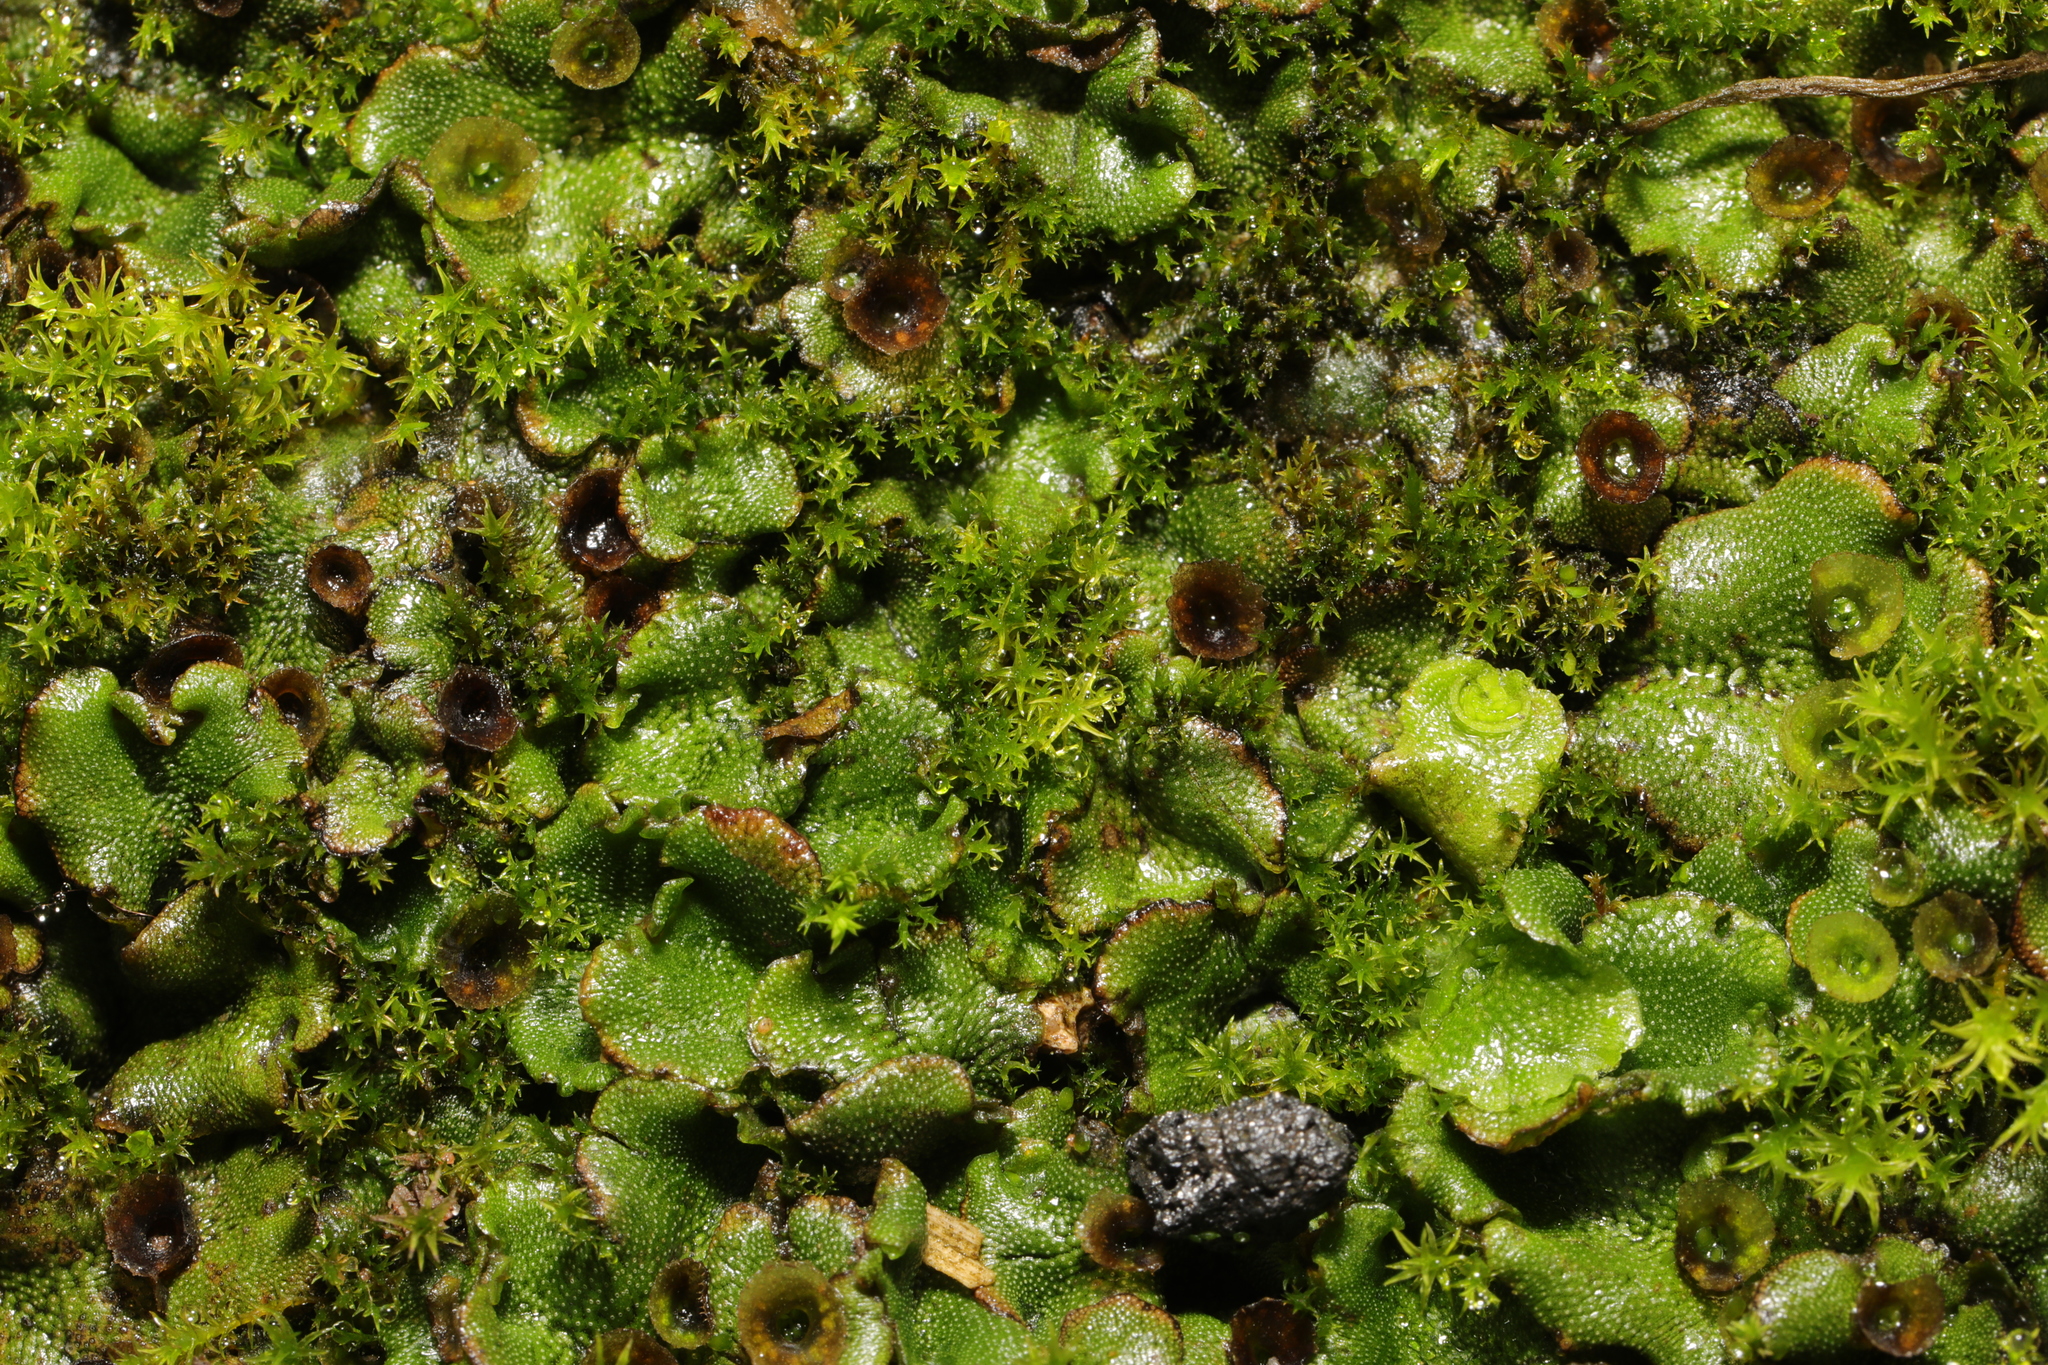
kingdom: Plantae
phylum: Marchantiophyta
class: Marchantiopsida
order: Marchantiales
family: Marchantiaceae
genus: Marchantia
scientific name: Marchantia polymorpha
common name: Common liverwort
